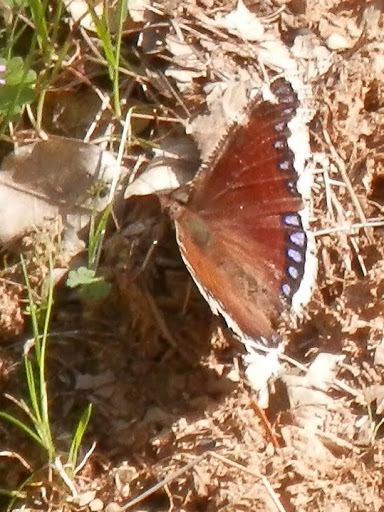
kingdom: Animalia
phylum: Arthropoda
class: Insecta
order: Lepidoptera
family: Nymphalidae
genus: Nymphalis
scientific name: Nymphalis antiopa
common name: Camberwell beauty
